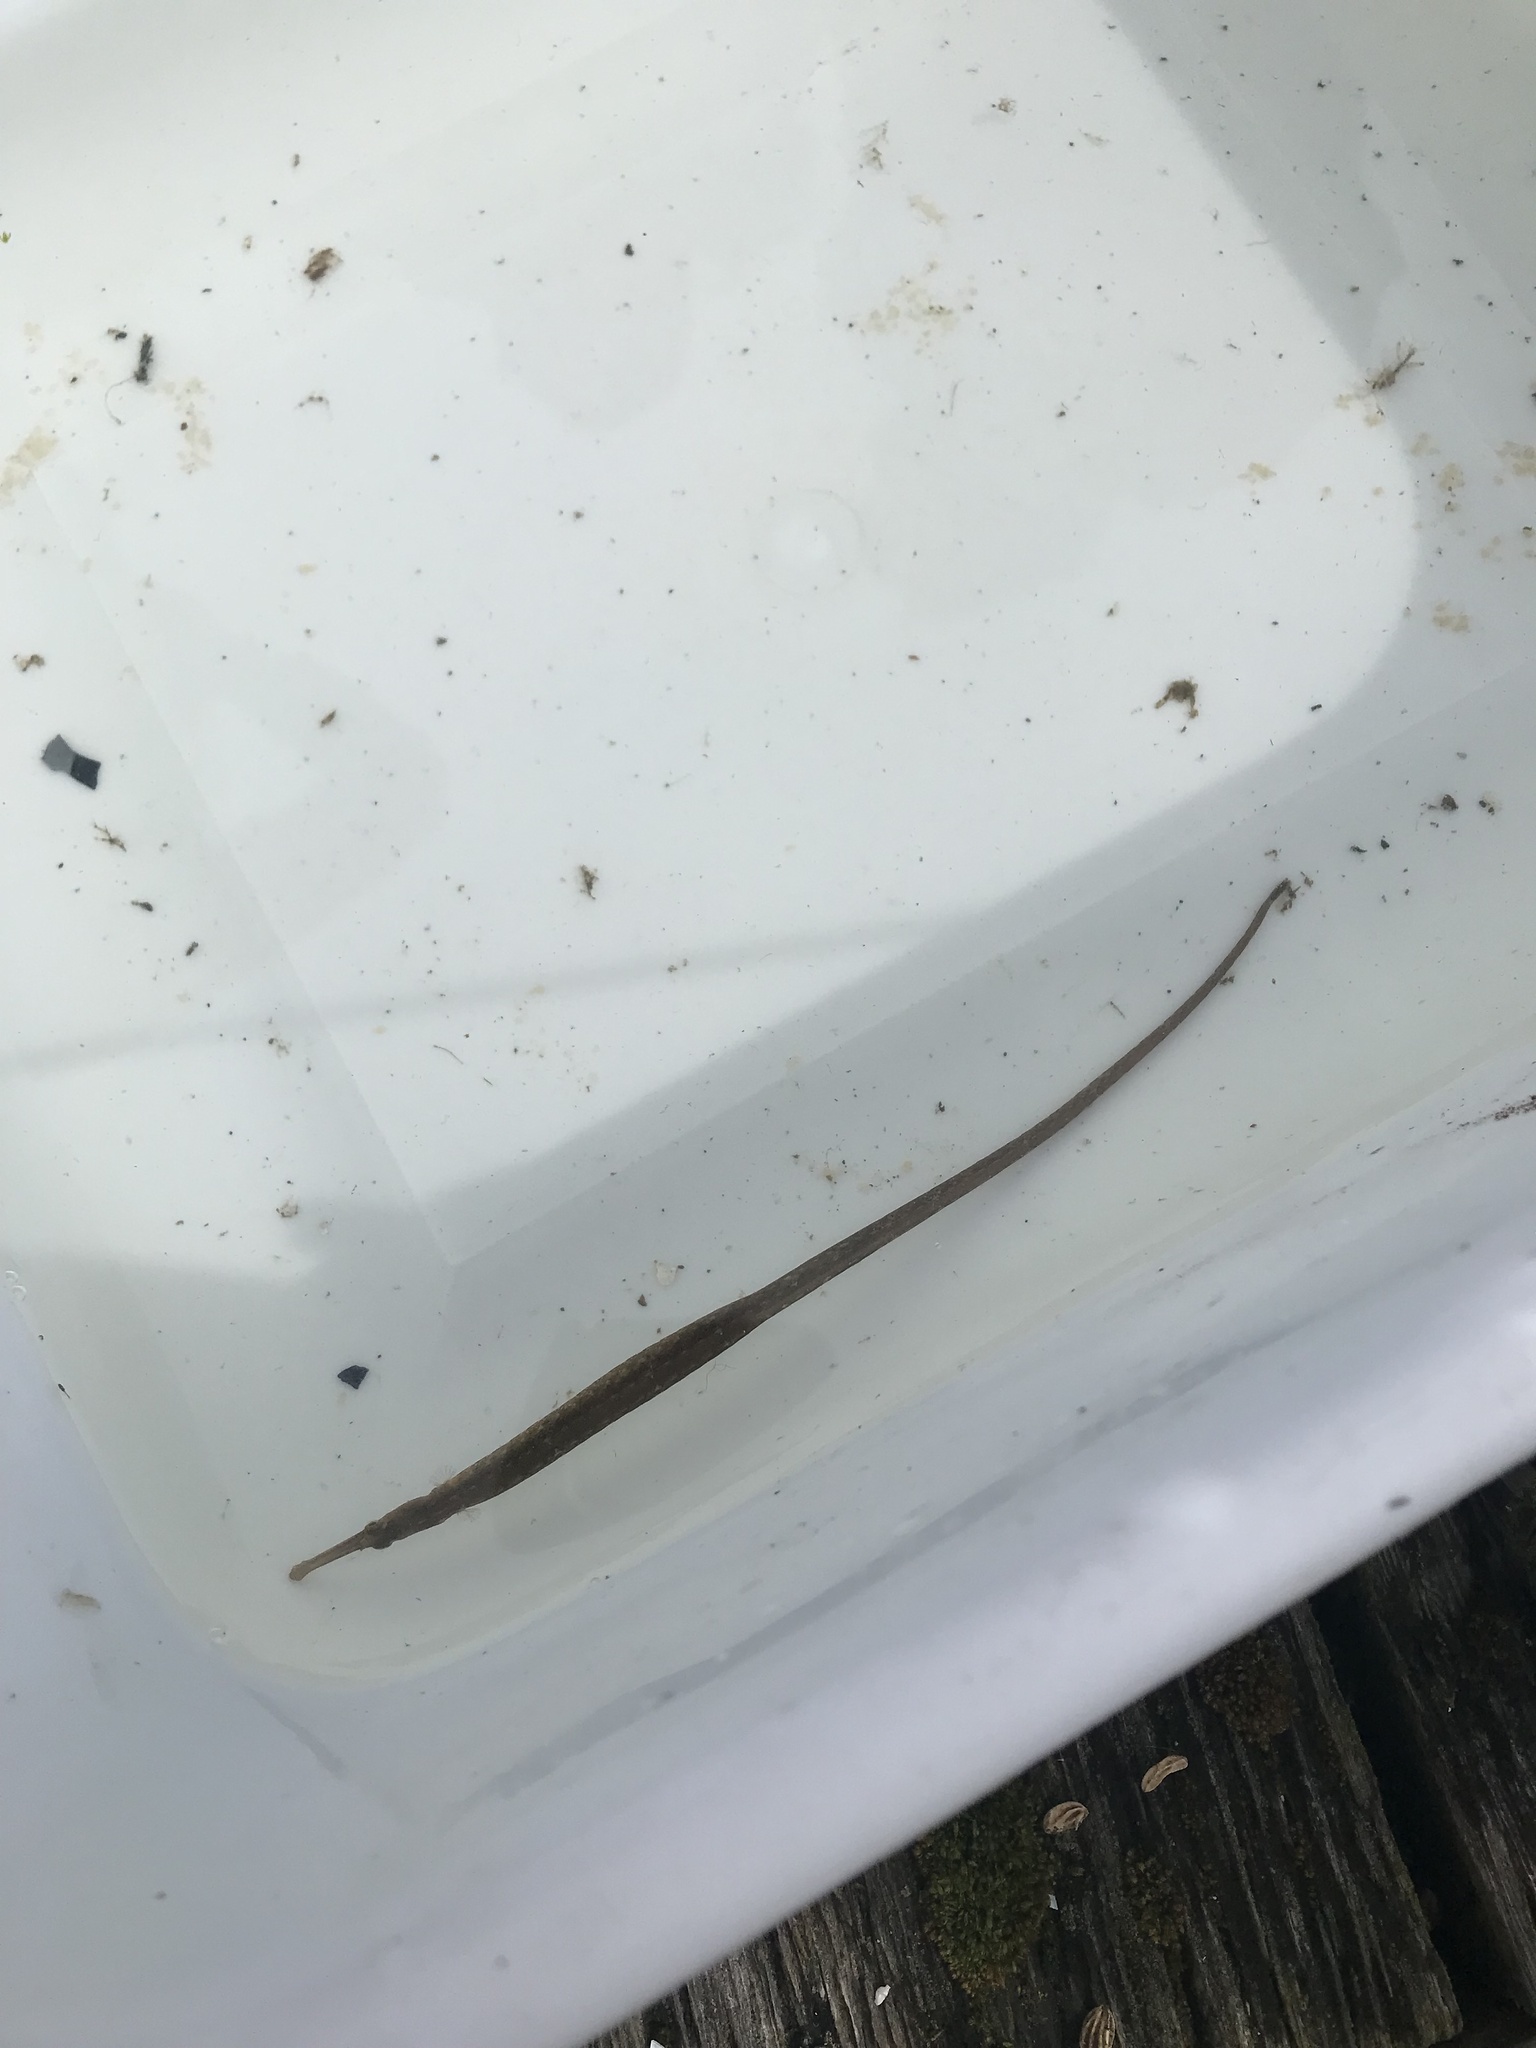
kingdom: Animalia
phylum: Chordata
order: Syngnathiformes
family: Syngnathidae
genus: Syngnathus
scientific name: Syngnathus californiensis
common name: Great pipefish
